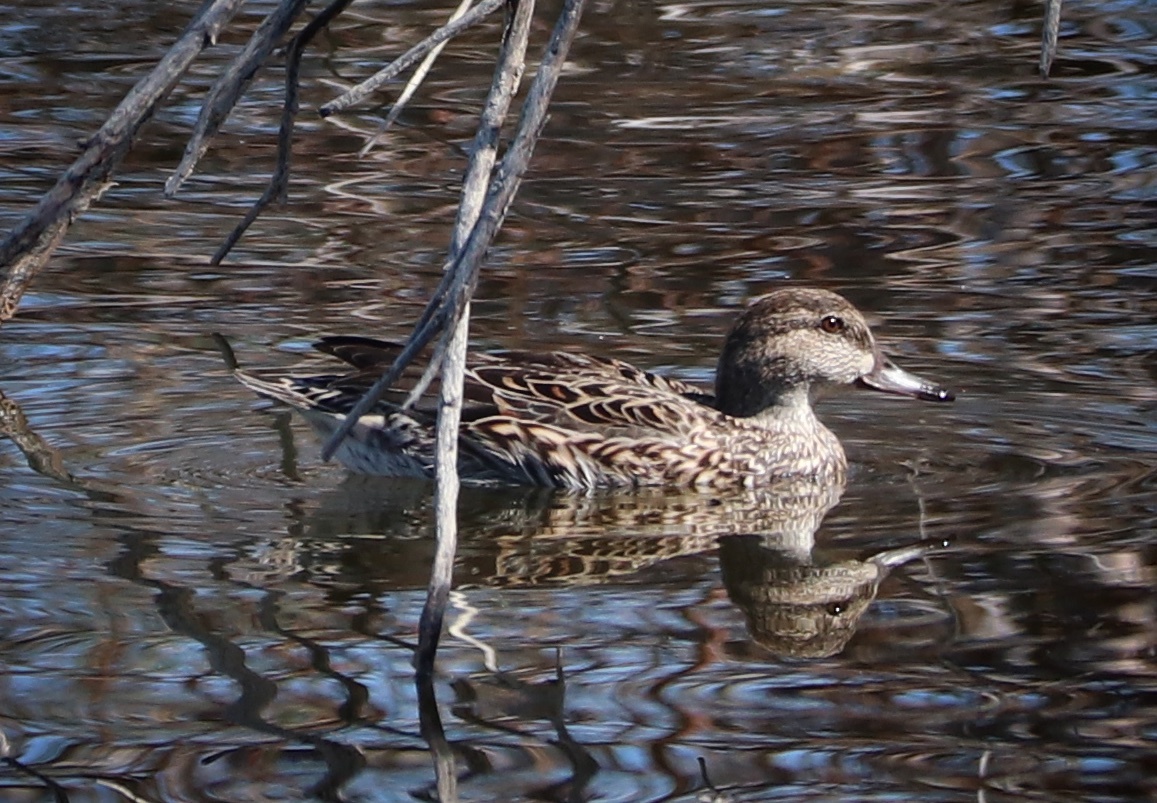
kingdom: Animalia
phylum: Chordata
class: Aves
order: Anseriformes
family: Anatidae
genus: Anas
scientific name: Anas crecca
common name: Eurasian teal
